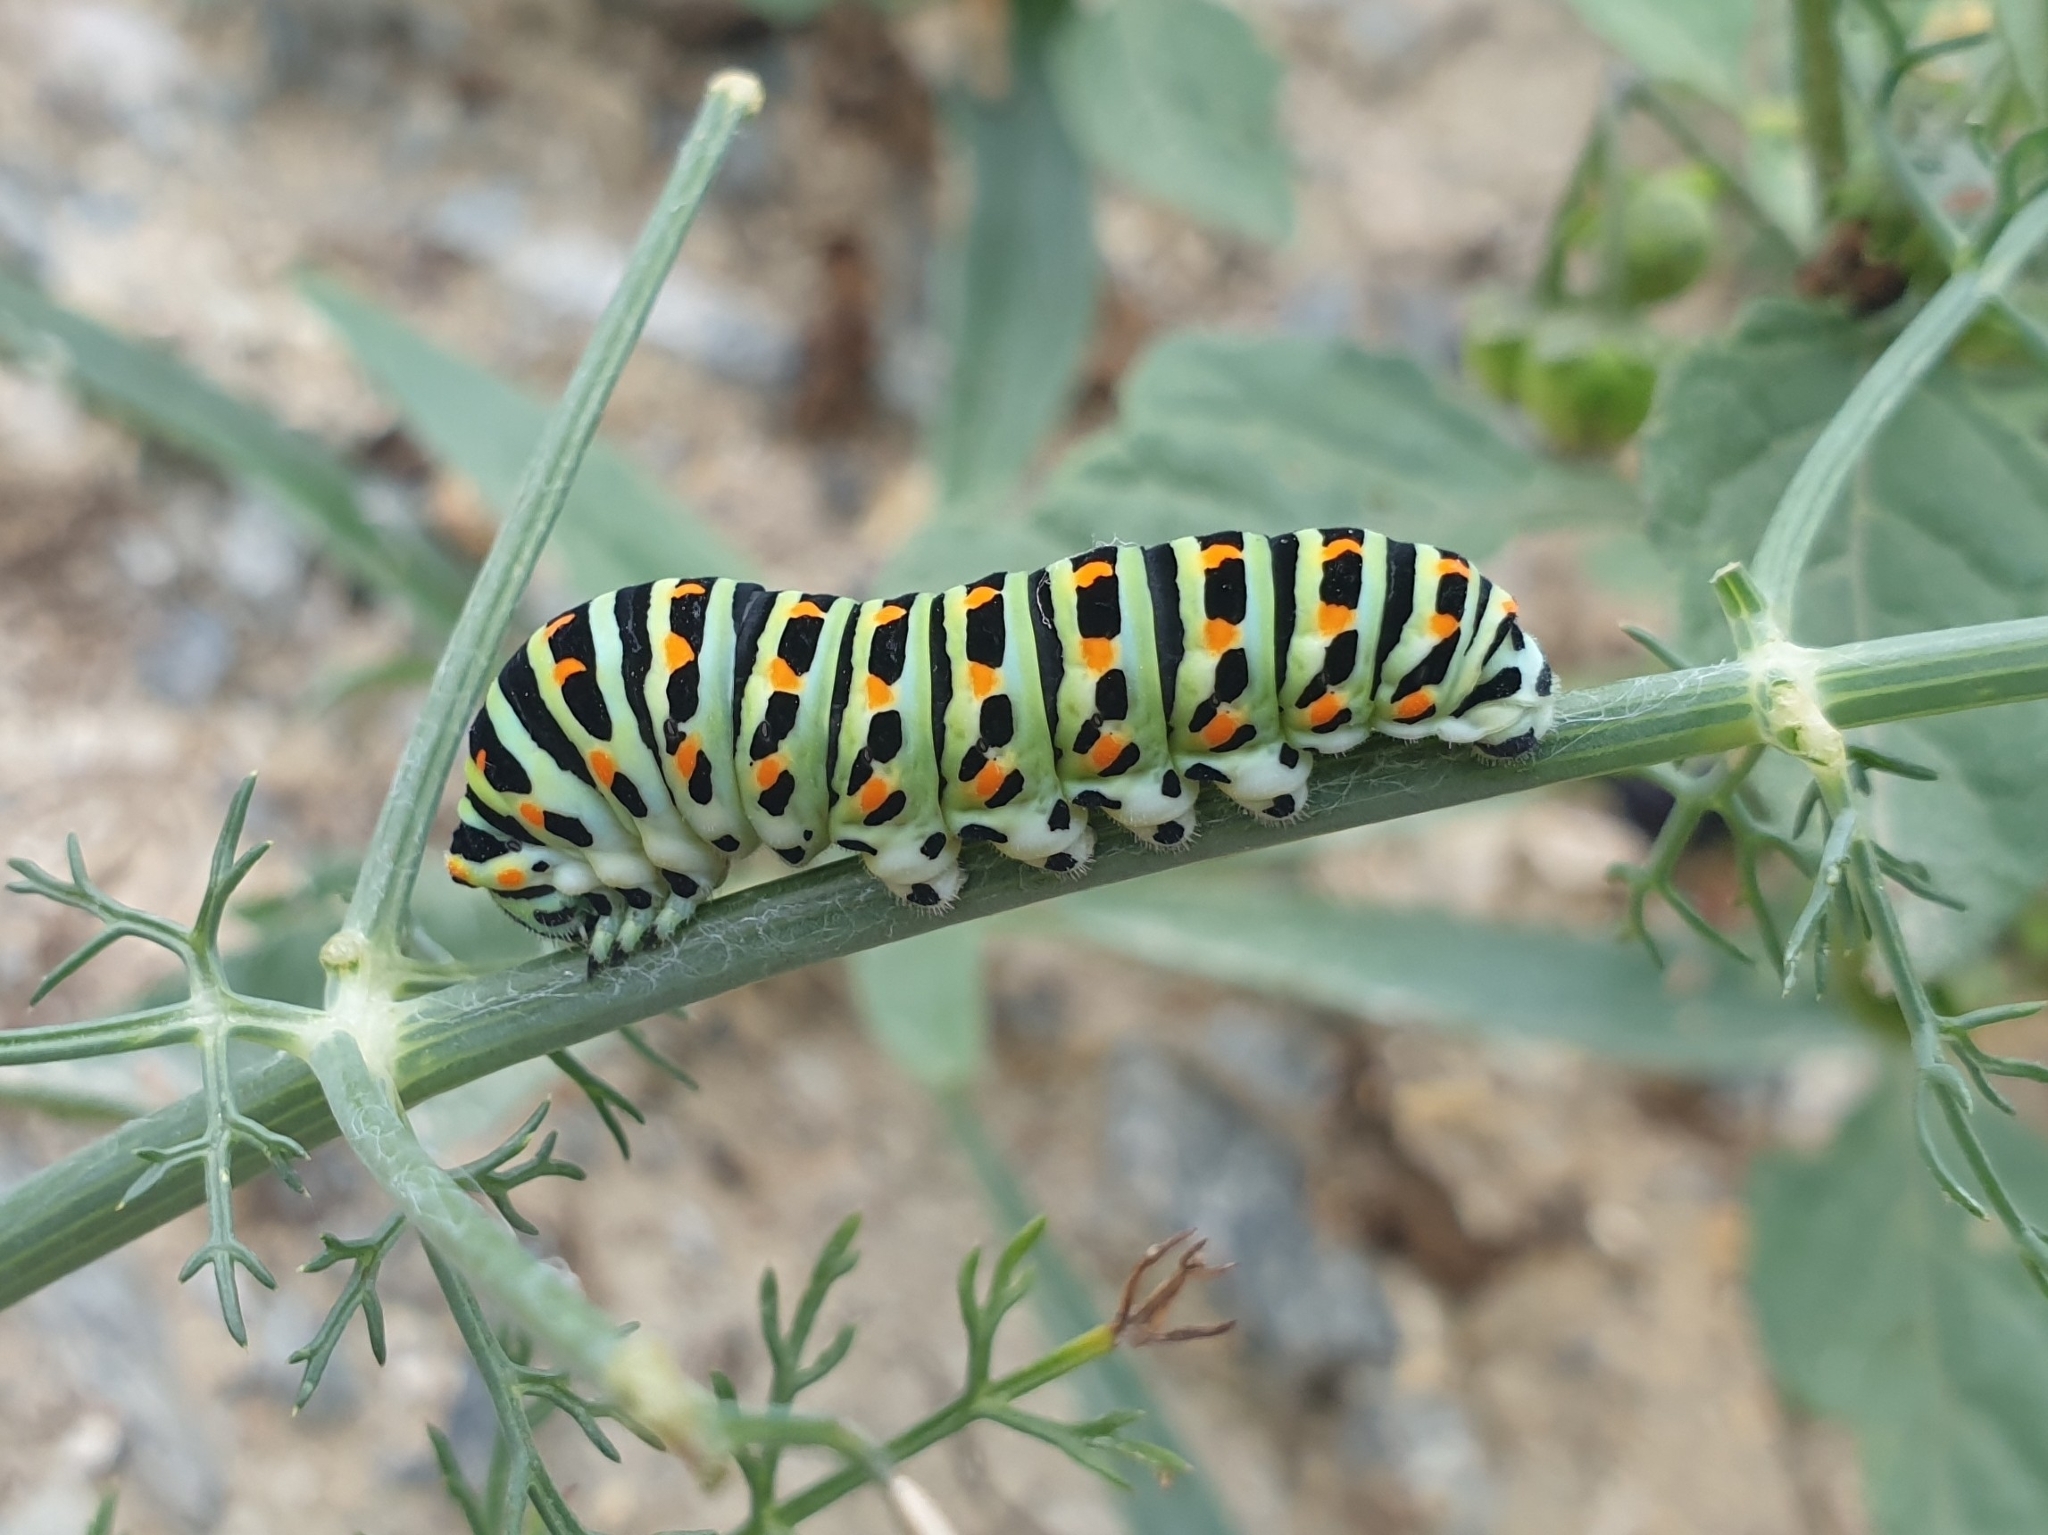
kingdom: Animalia
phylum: Arthropoda
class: Insecta
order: Lepidoptera
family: Papilionidae
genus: Papilio
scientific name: Papilio machaon
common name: Swallowtail
